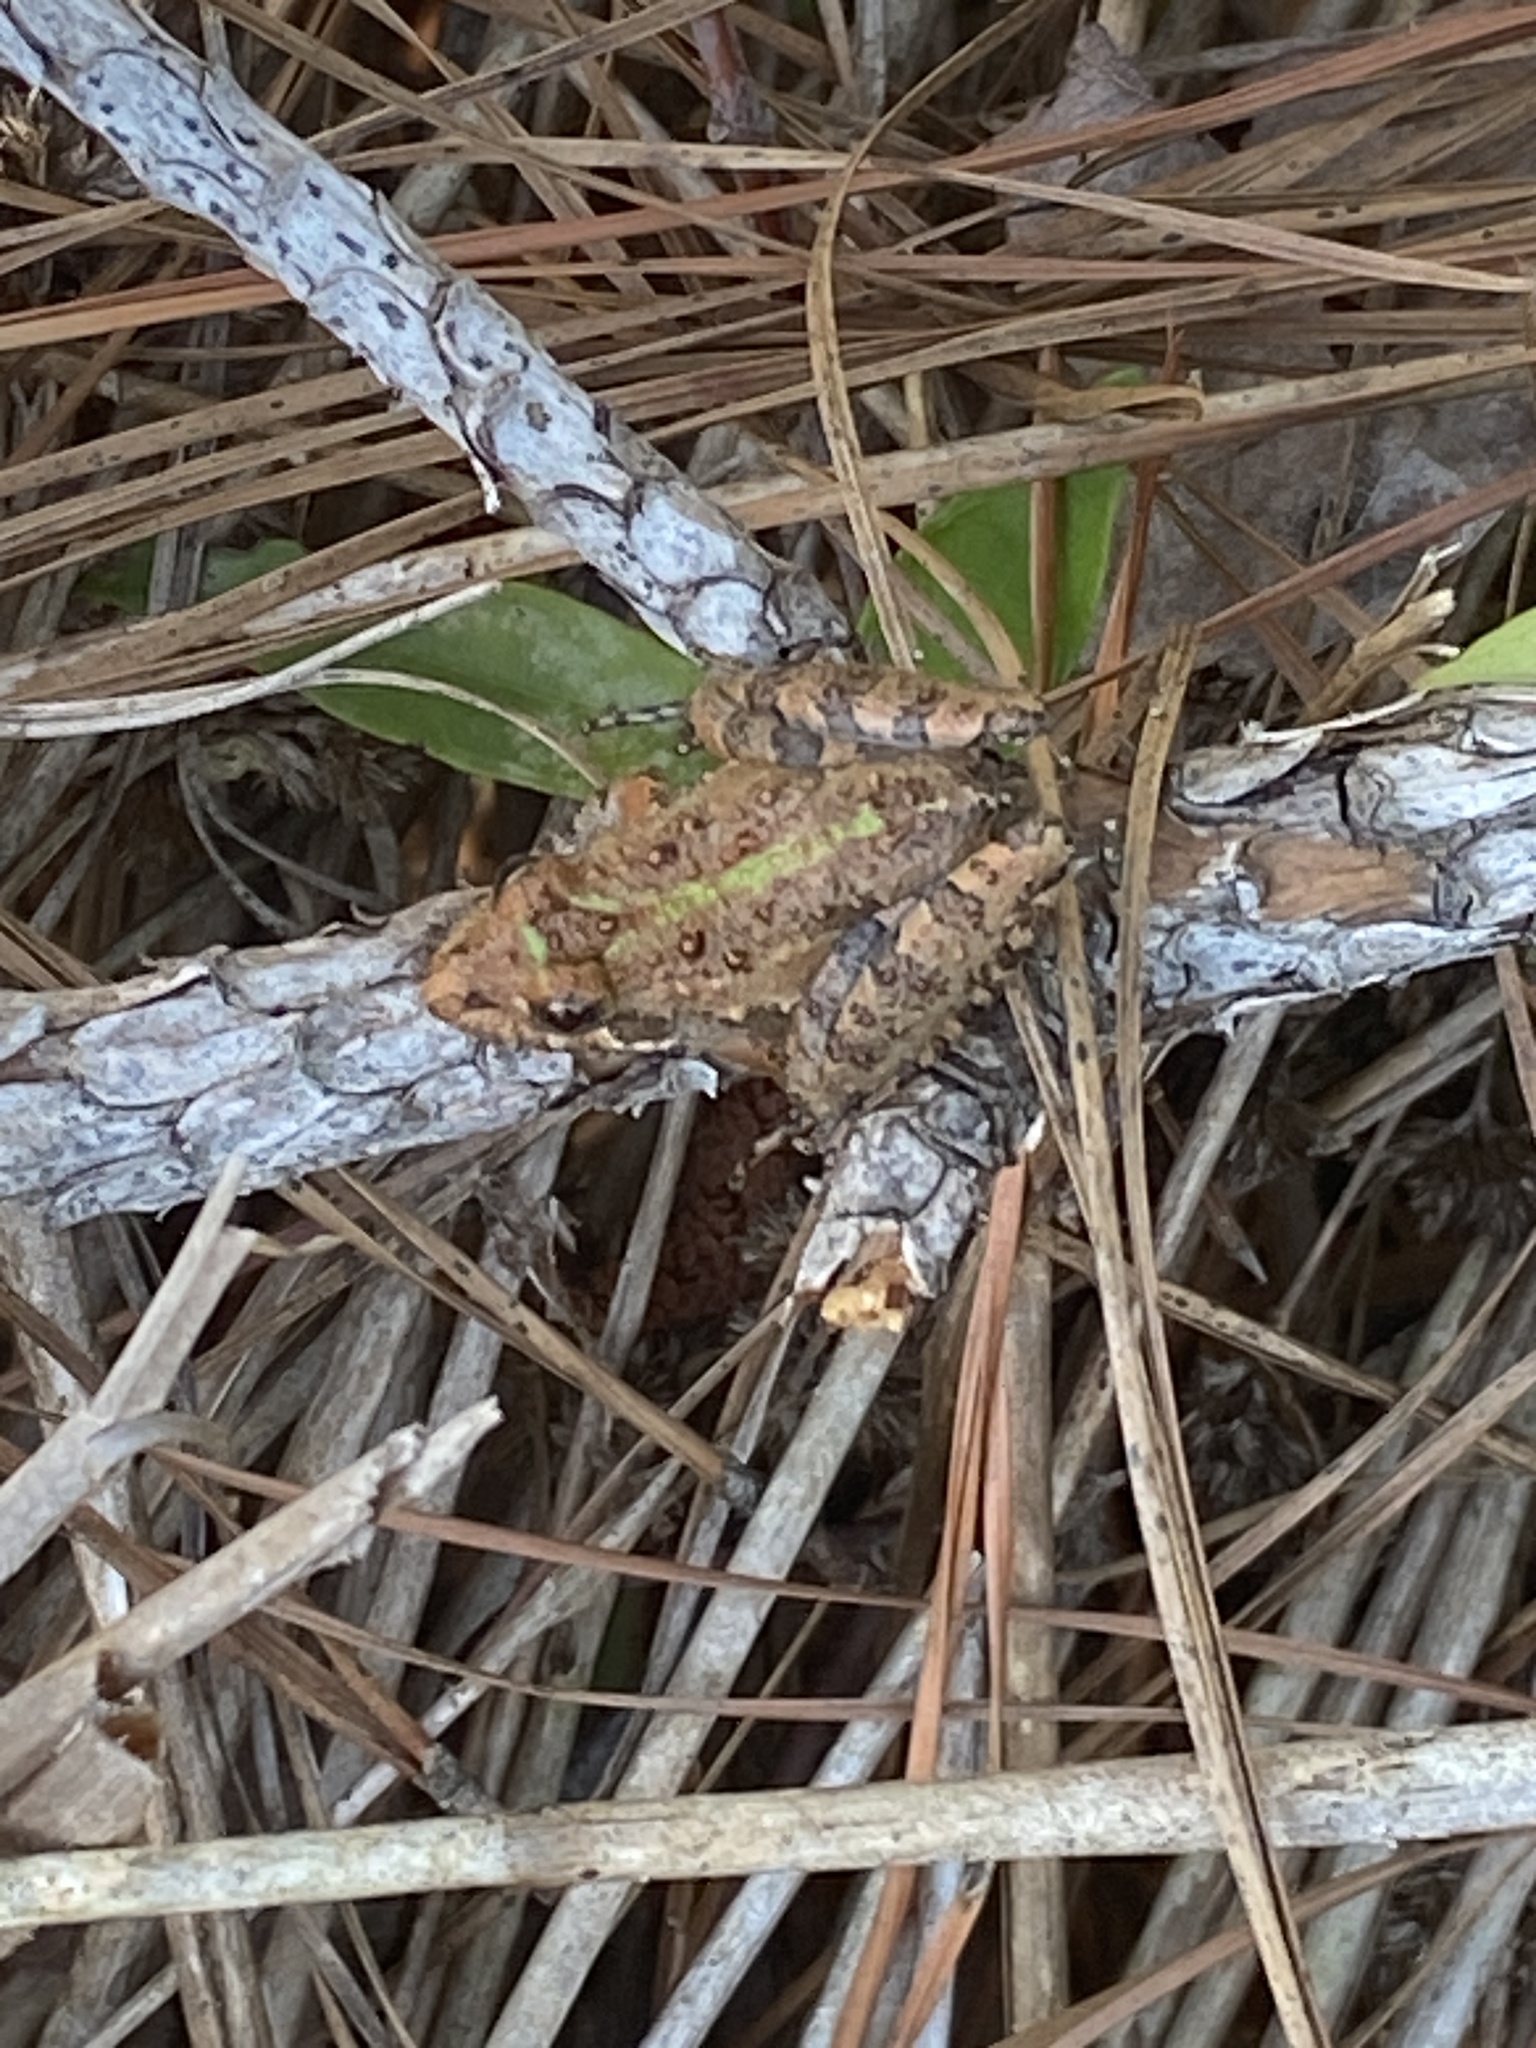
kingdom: Animalia
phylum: Chordata
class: Amphibia
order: Anura
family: Hylidae
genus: Acris
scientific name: Acris gryllus
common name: Southern cricket frog
